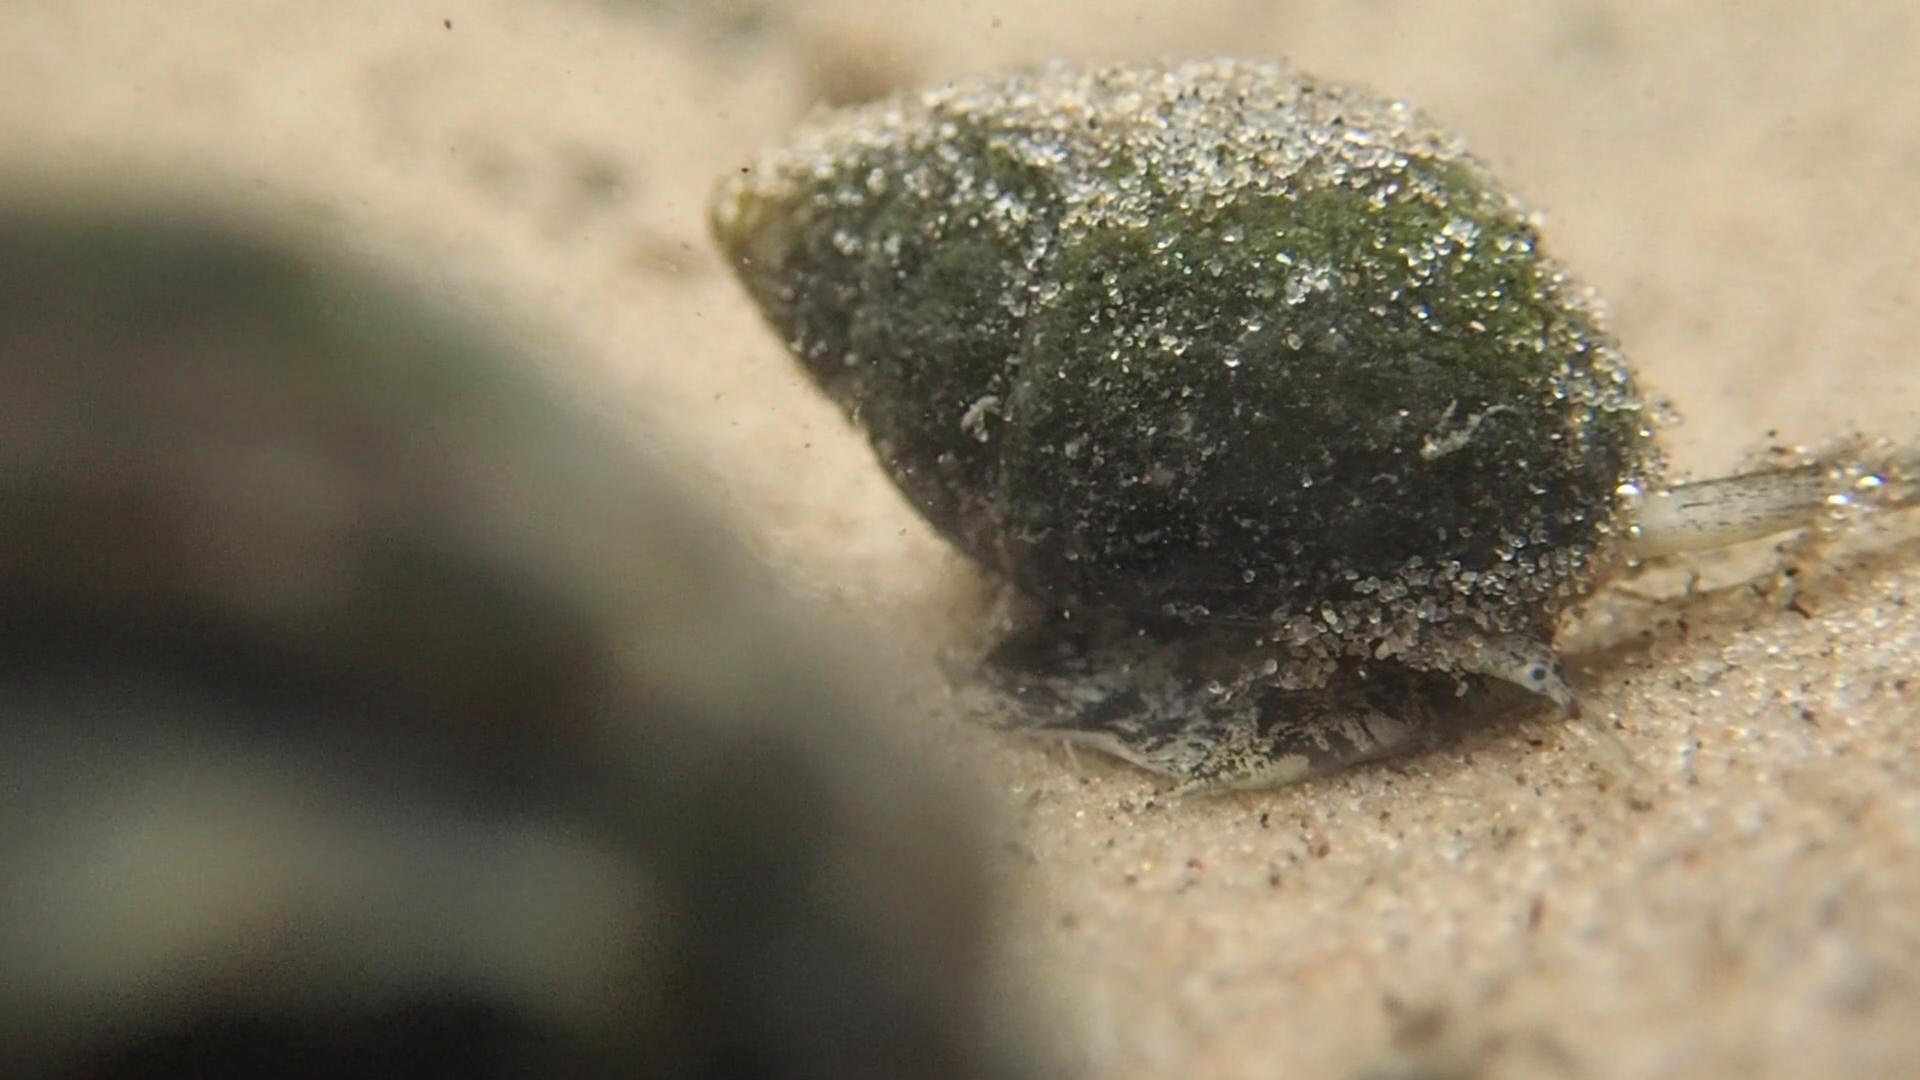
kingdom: Animalia
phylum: Mollusca
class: Gastropoda
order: Neogastropoda
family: Nassariidae
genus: Ilyanassa
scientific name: Ilyanassa obsoleta
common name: Eastern mudsnail
